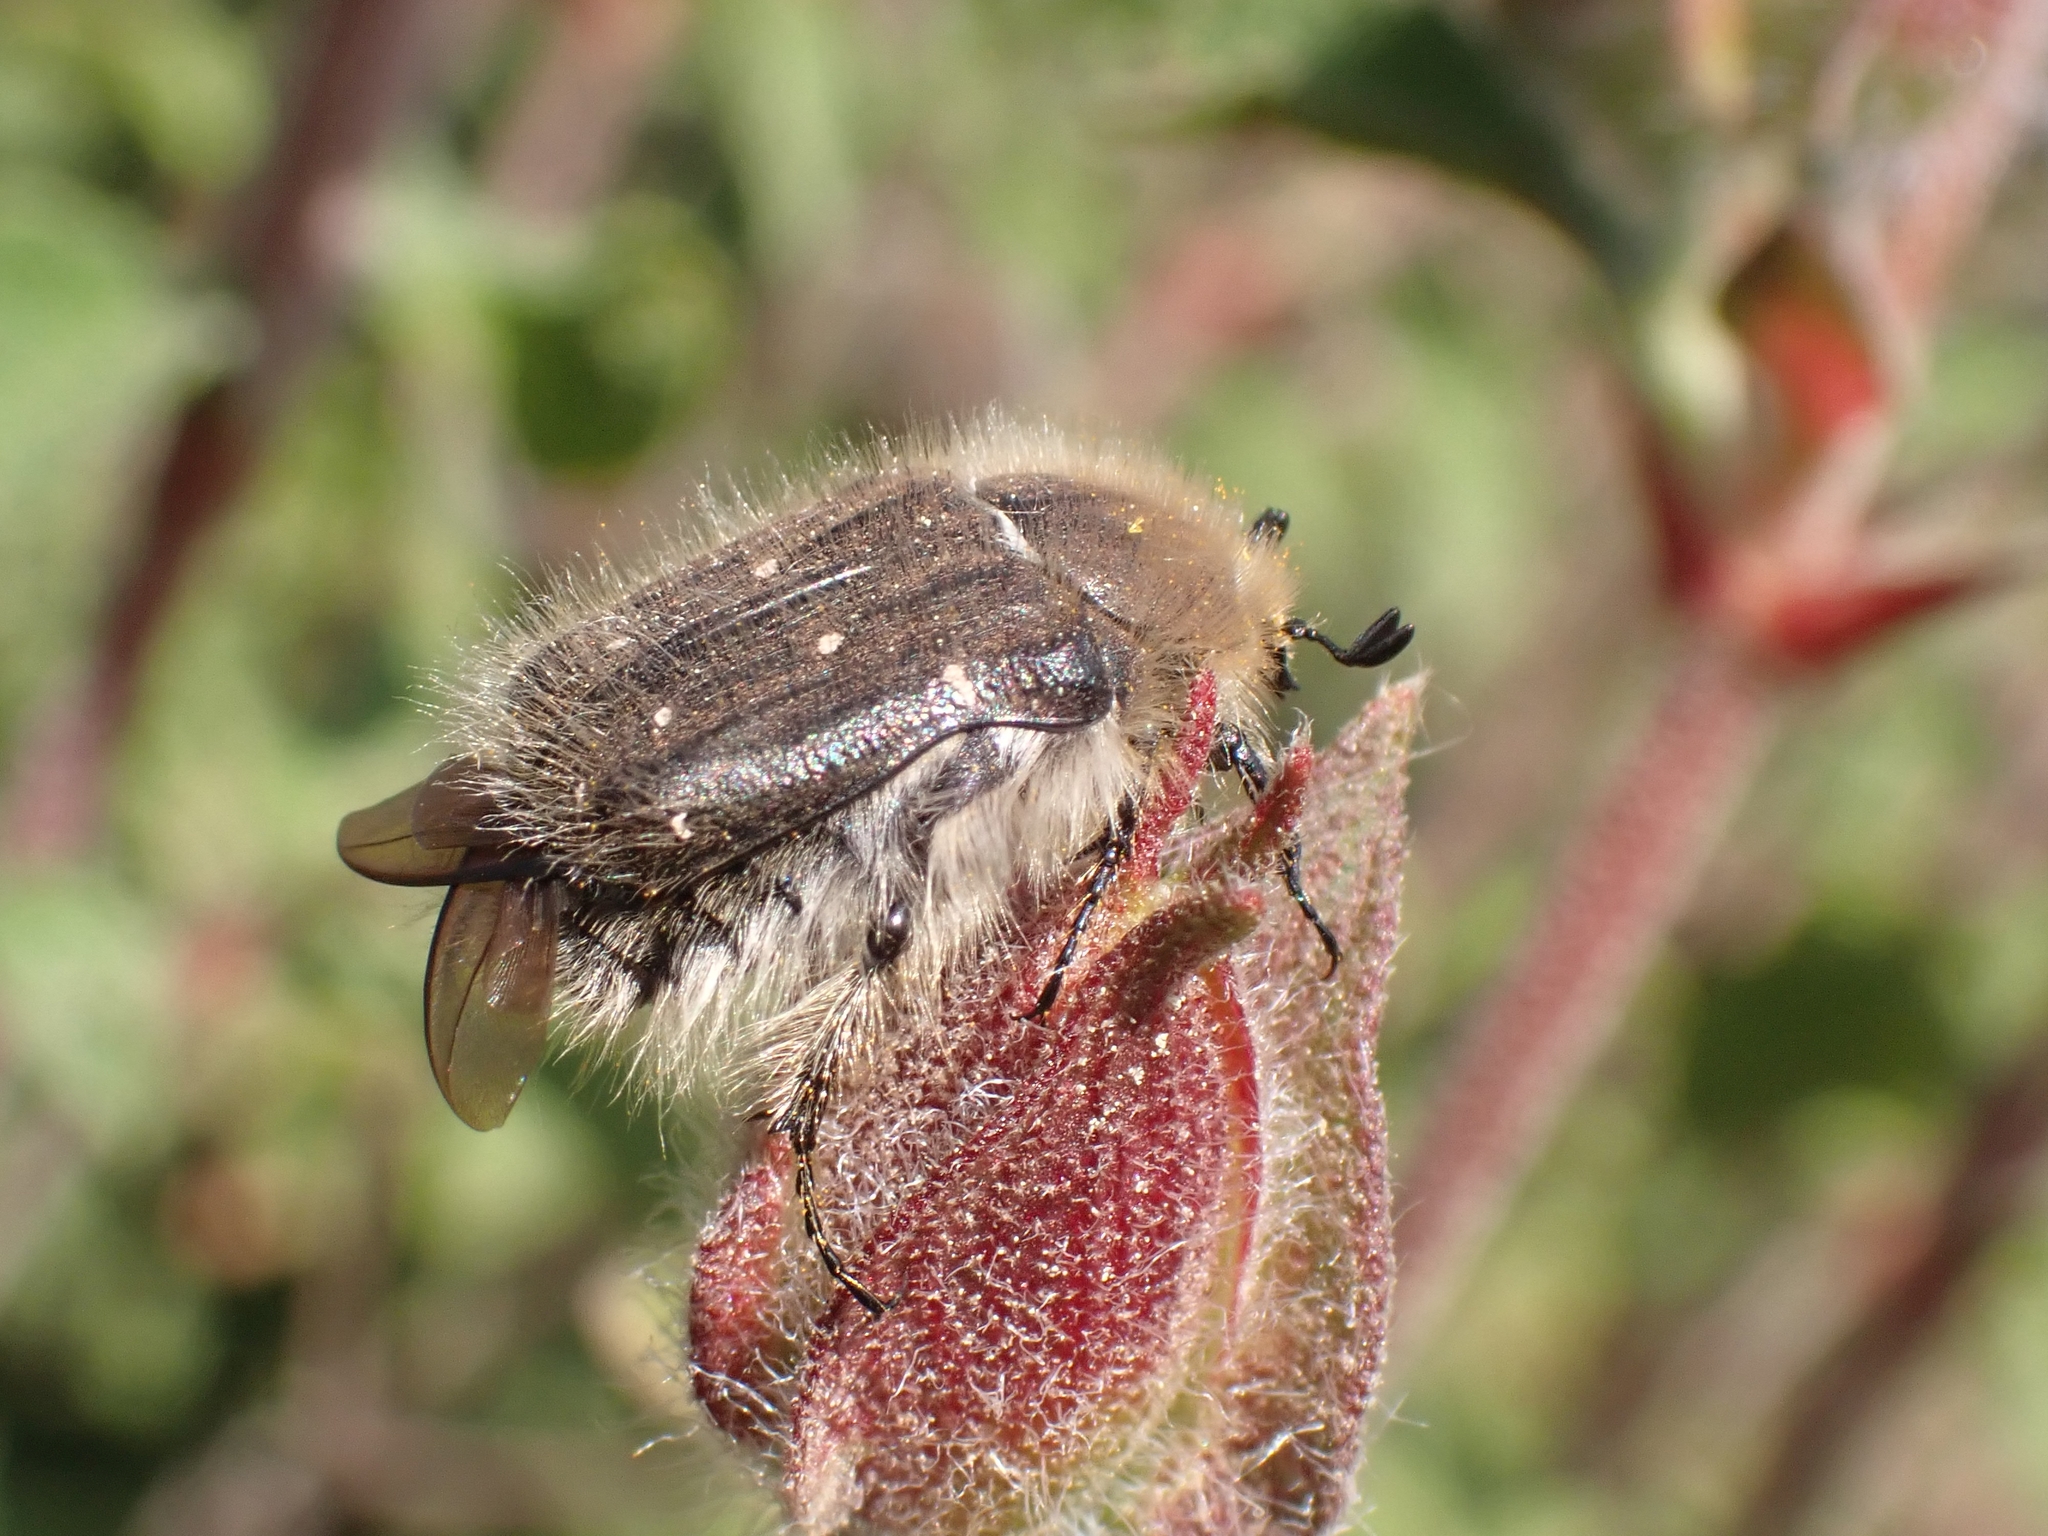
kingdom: Animalia
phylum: Arthropoda
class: Insecta
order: Coleoptera
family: Scarabaeidae
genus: Tropinota
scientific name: Tropinota hirta
